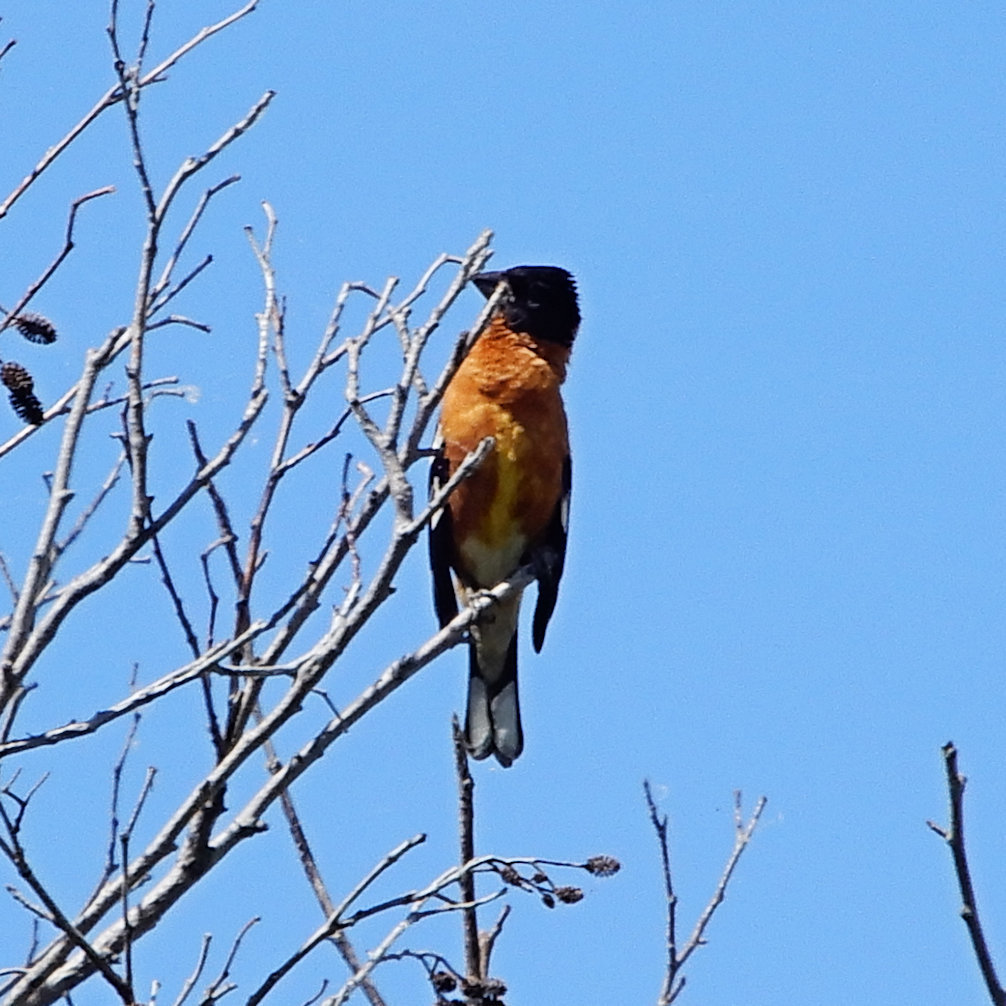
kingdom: Animalia
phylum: Chordata
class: Aves
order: Passeriformes
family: Cardinalidae
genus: Pheucticus
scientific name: Pheucticus melanocephalus
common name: Black-headed grosbeak
